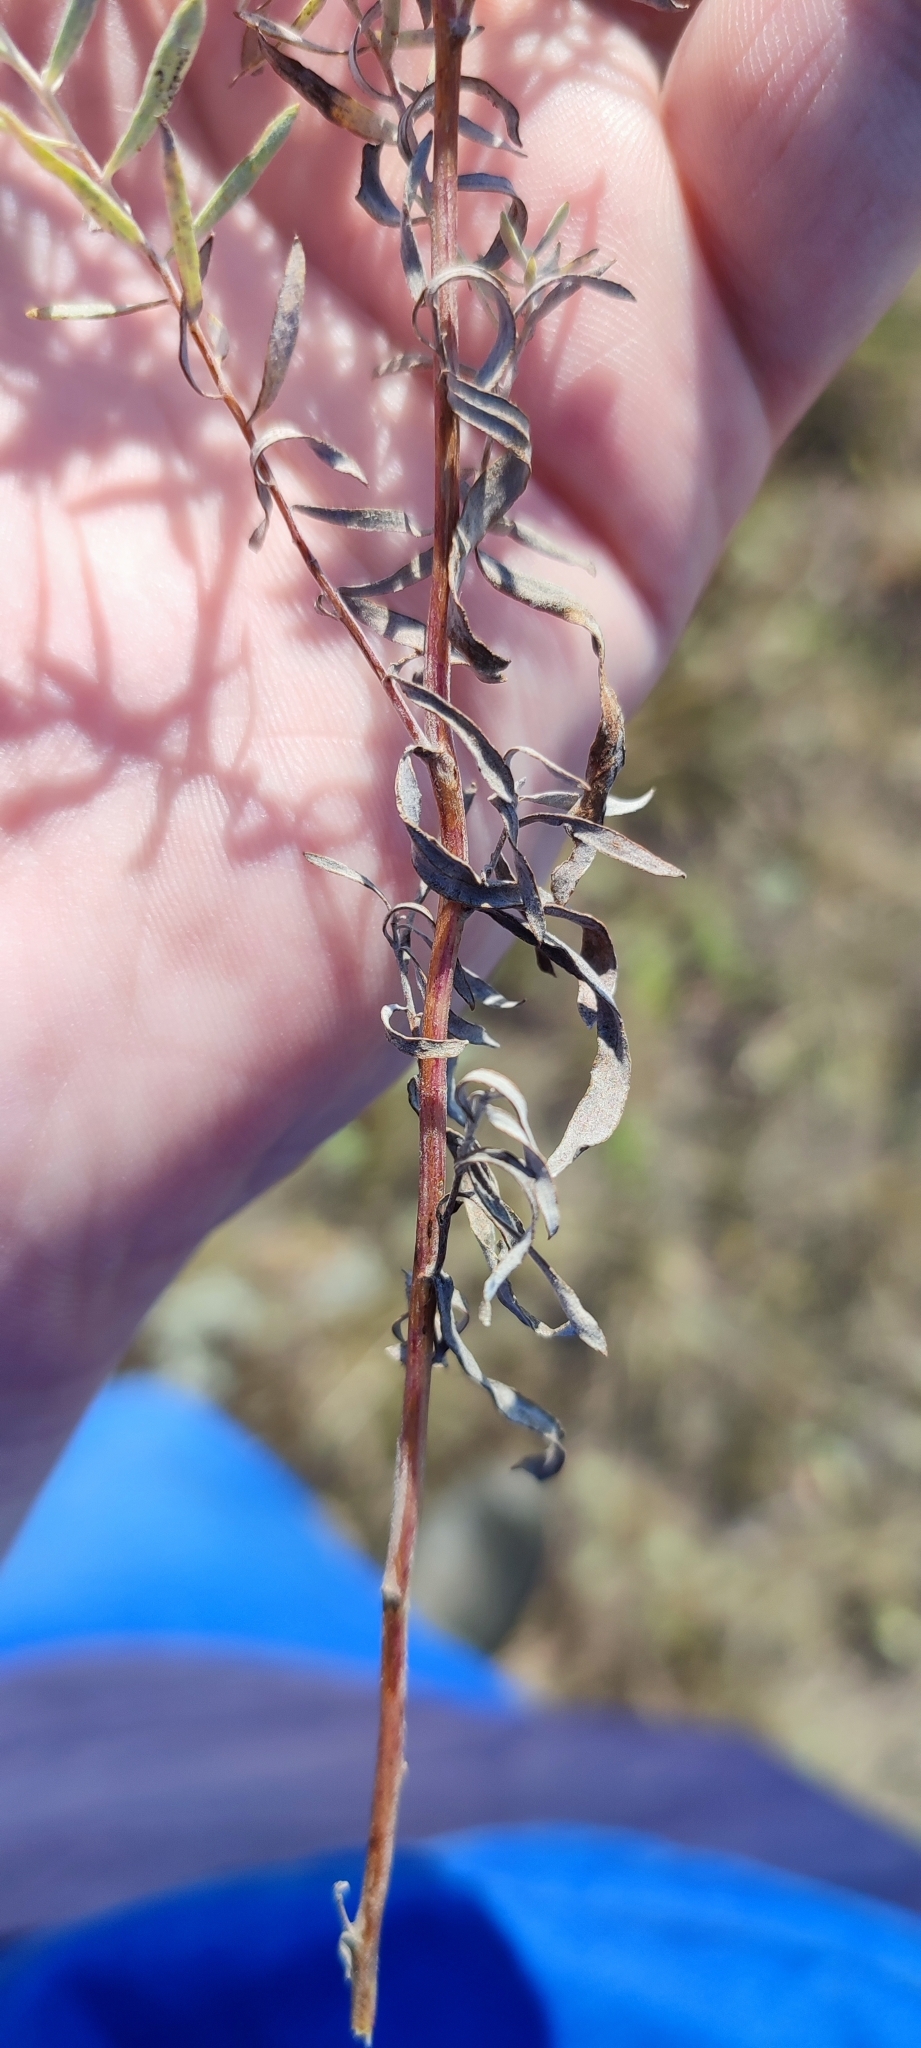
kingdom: Plantae
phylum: Tracheophyta
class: Magnoliopsida
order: Asterales
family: Asteraceae
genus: Artemisia
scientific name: Artemisia glauca
